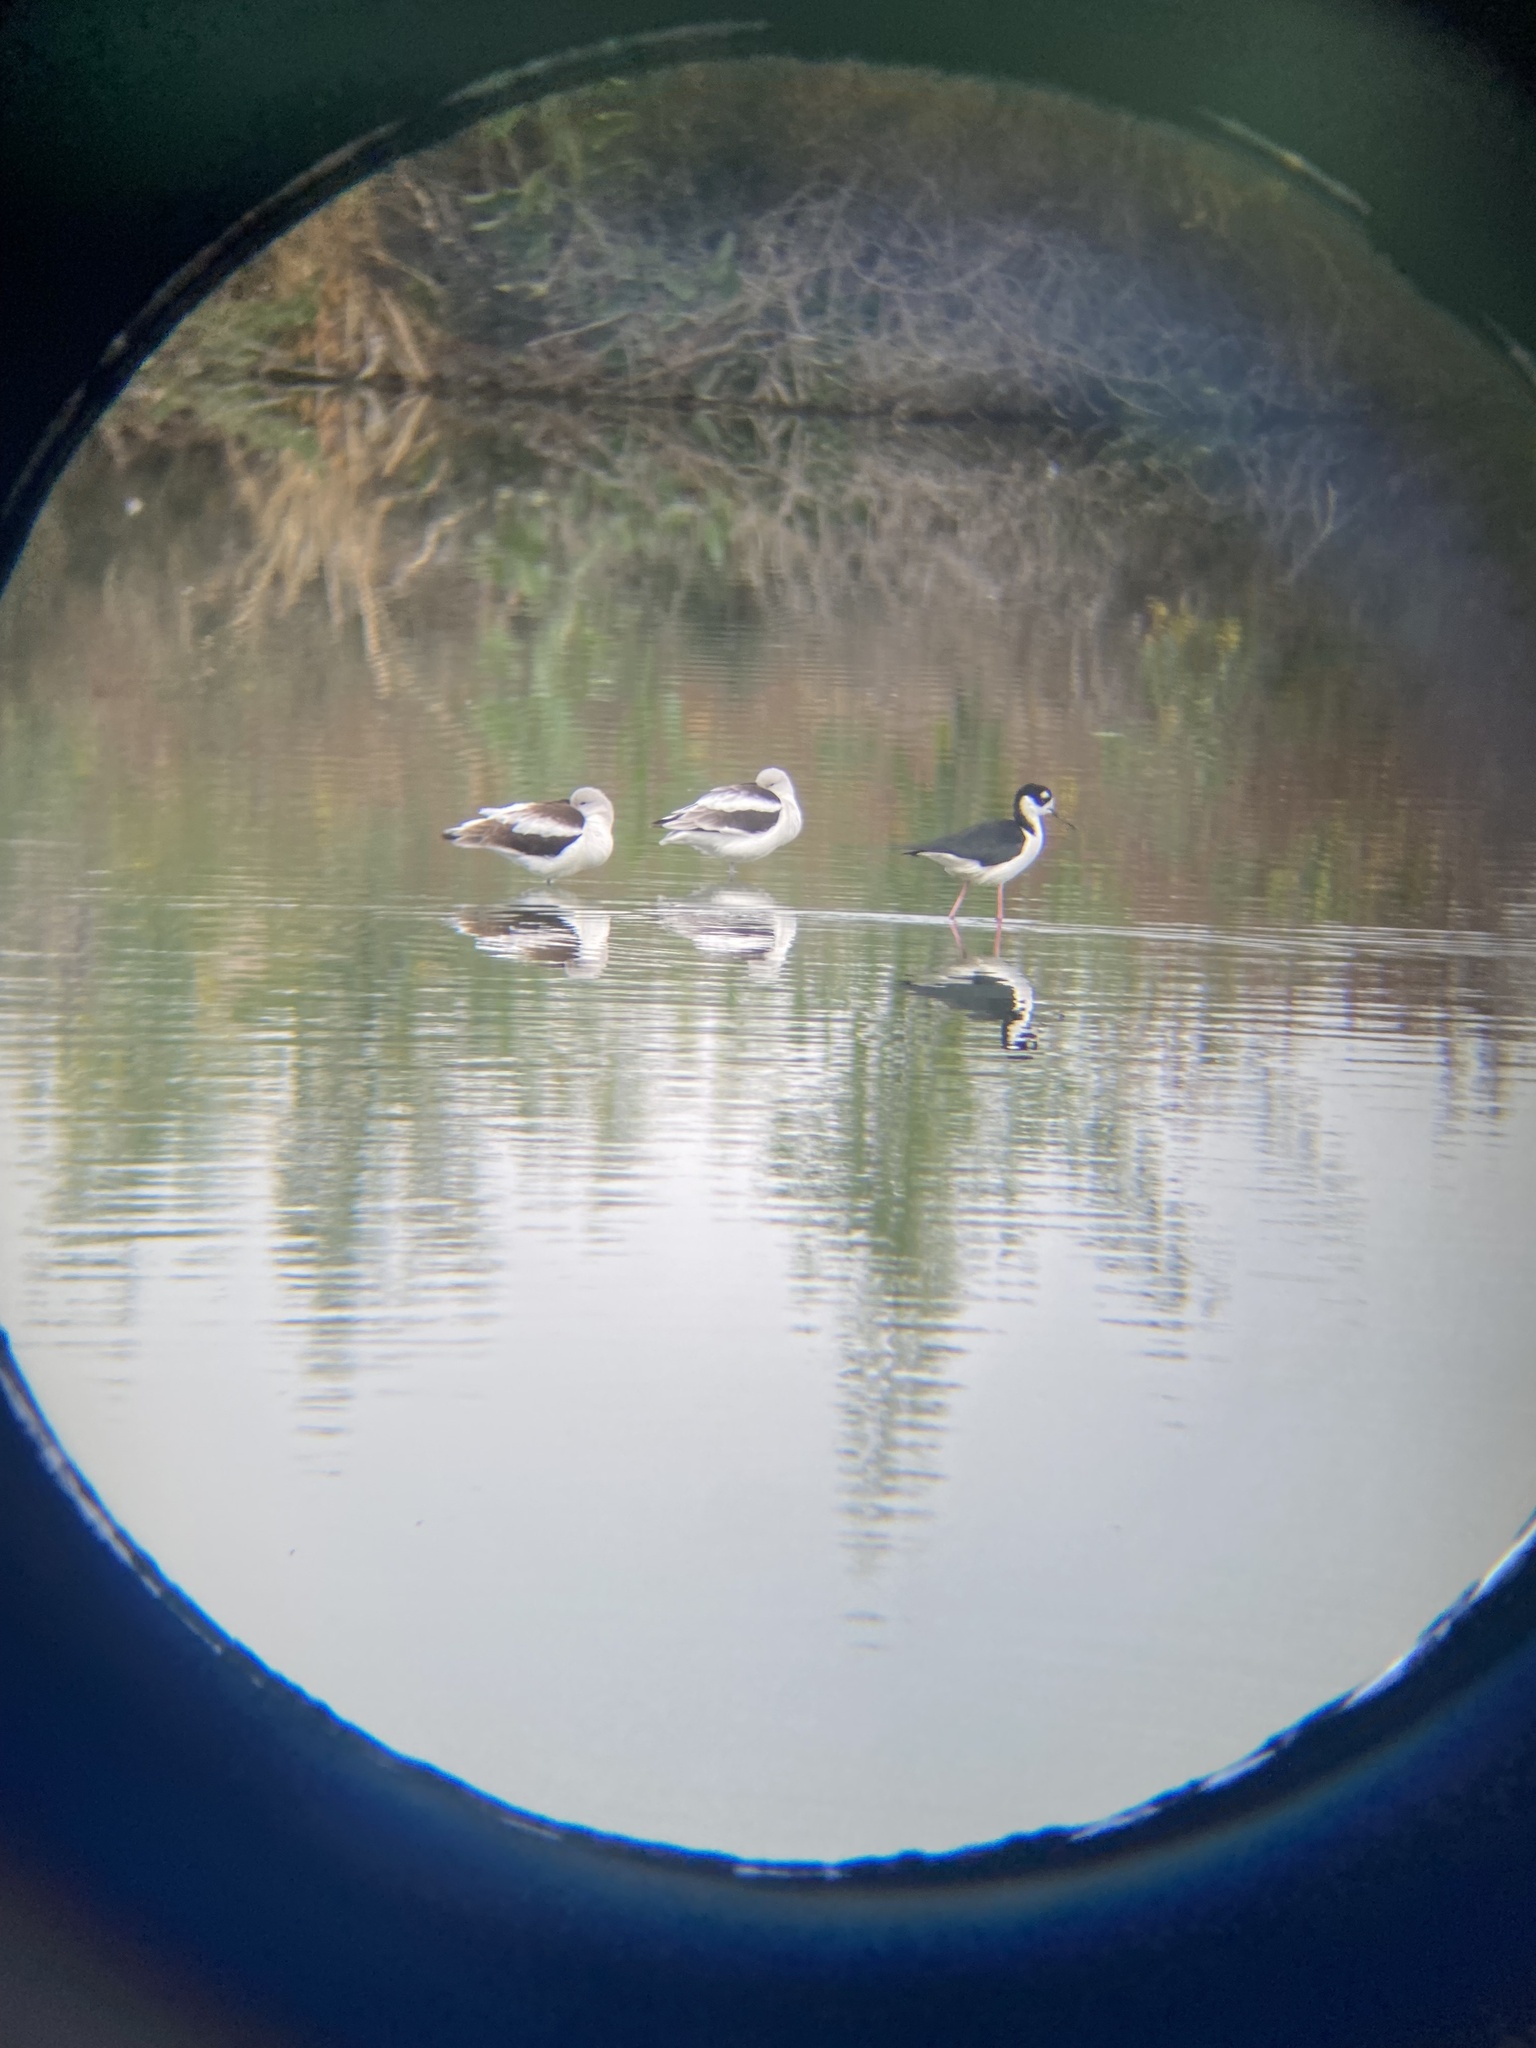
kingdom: Animalia
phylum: Chordata
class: Aves
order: Charadriiformes
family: Recurvirostridae
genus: Himantopus
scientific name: Himantopus mexicanus
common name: Black-necked stilt
